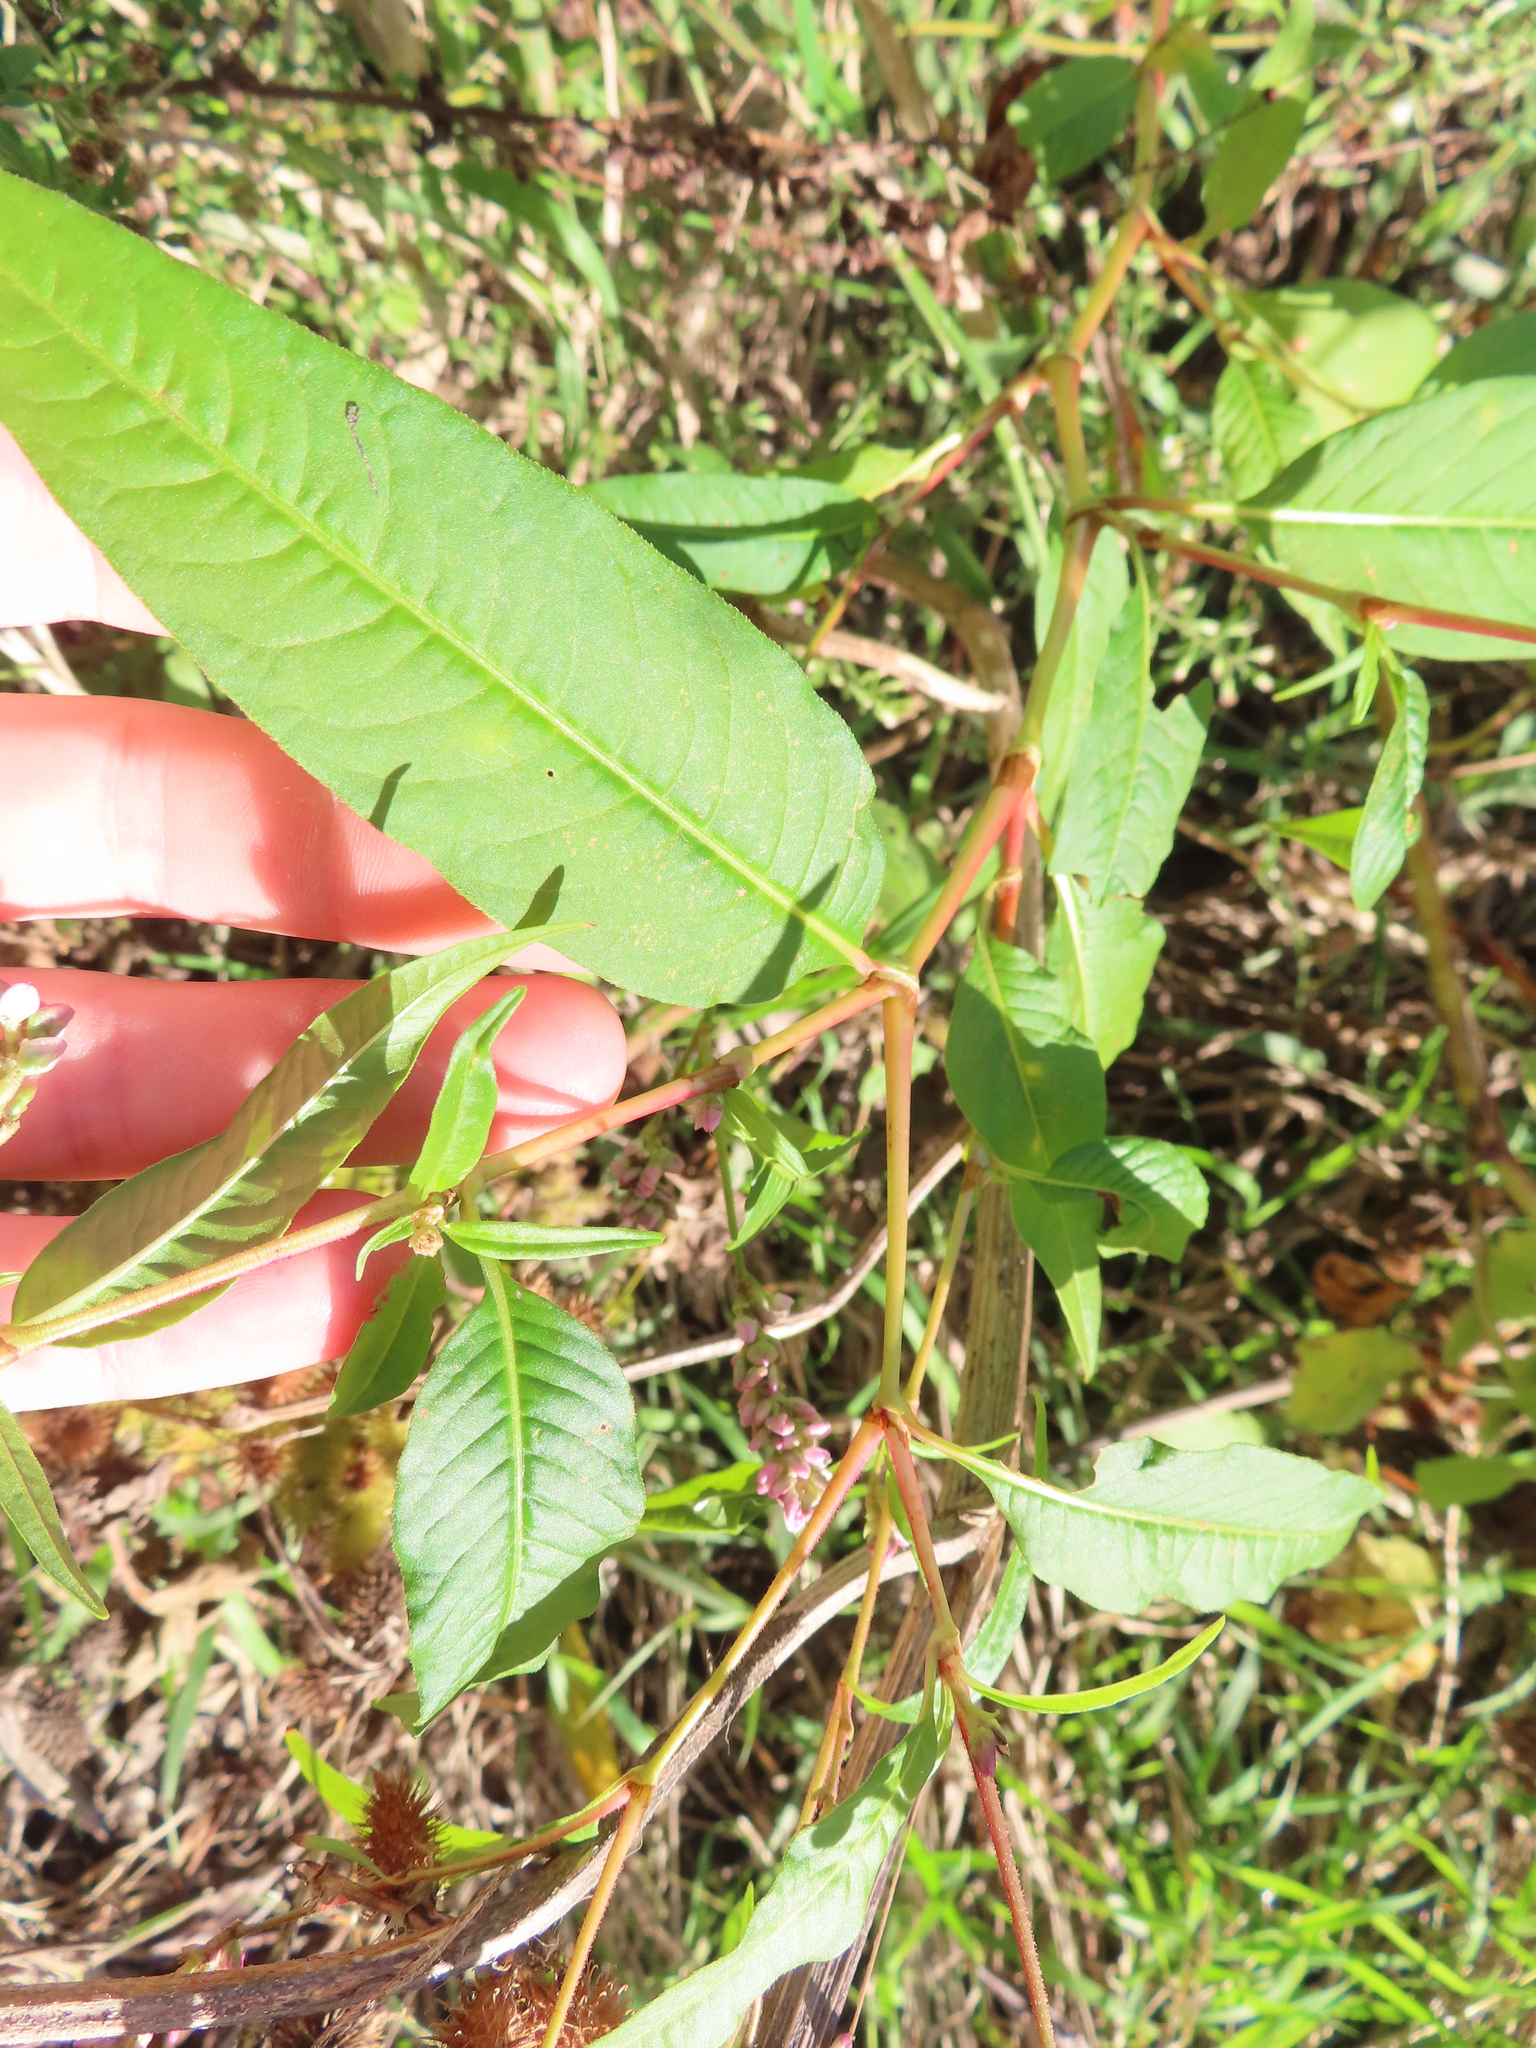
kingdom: Plantae
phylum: Tracheophyta
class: Magnoliopsida
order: Caryophyllales
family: Polygonaceae
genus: Persicaria
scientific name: Persicaria pensylvanica
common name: Pinkweed
